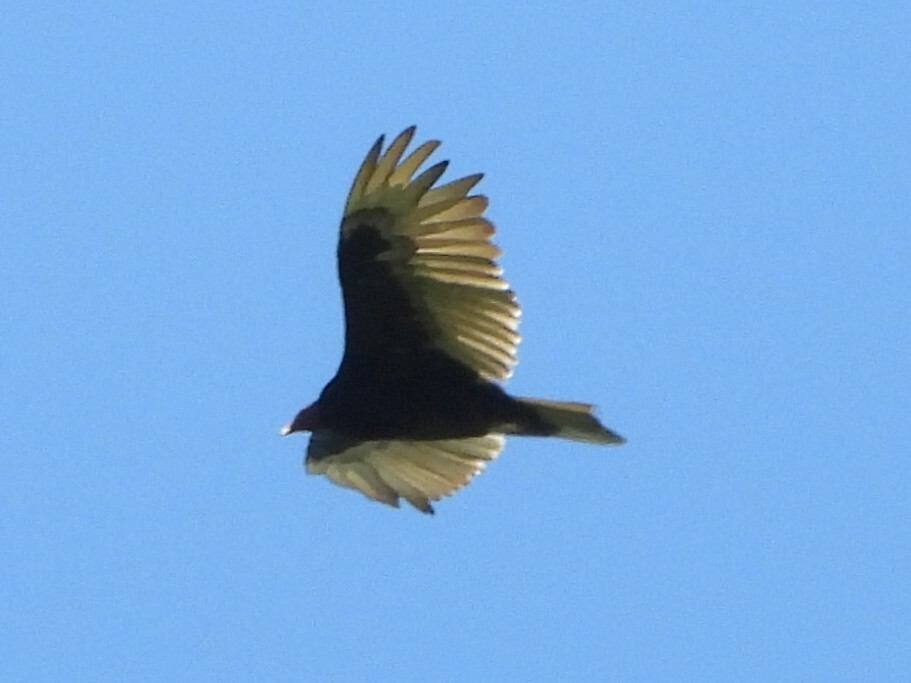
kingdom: Animalia
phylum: Chordata
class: Aves
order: Accipitriformes
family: Cathartidae
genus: Cathartes
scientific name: Cathartes aura
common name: Turkey vulture
